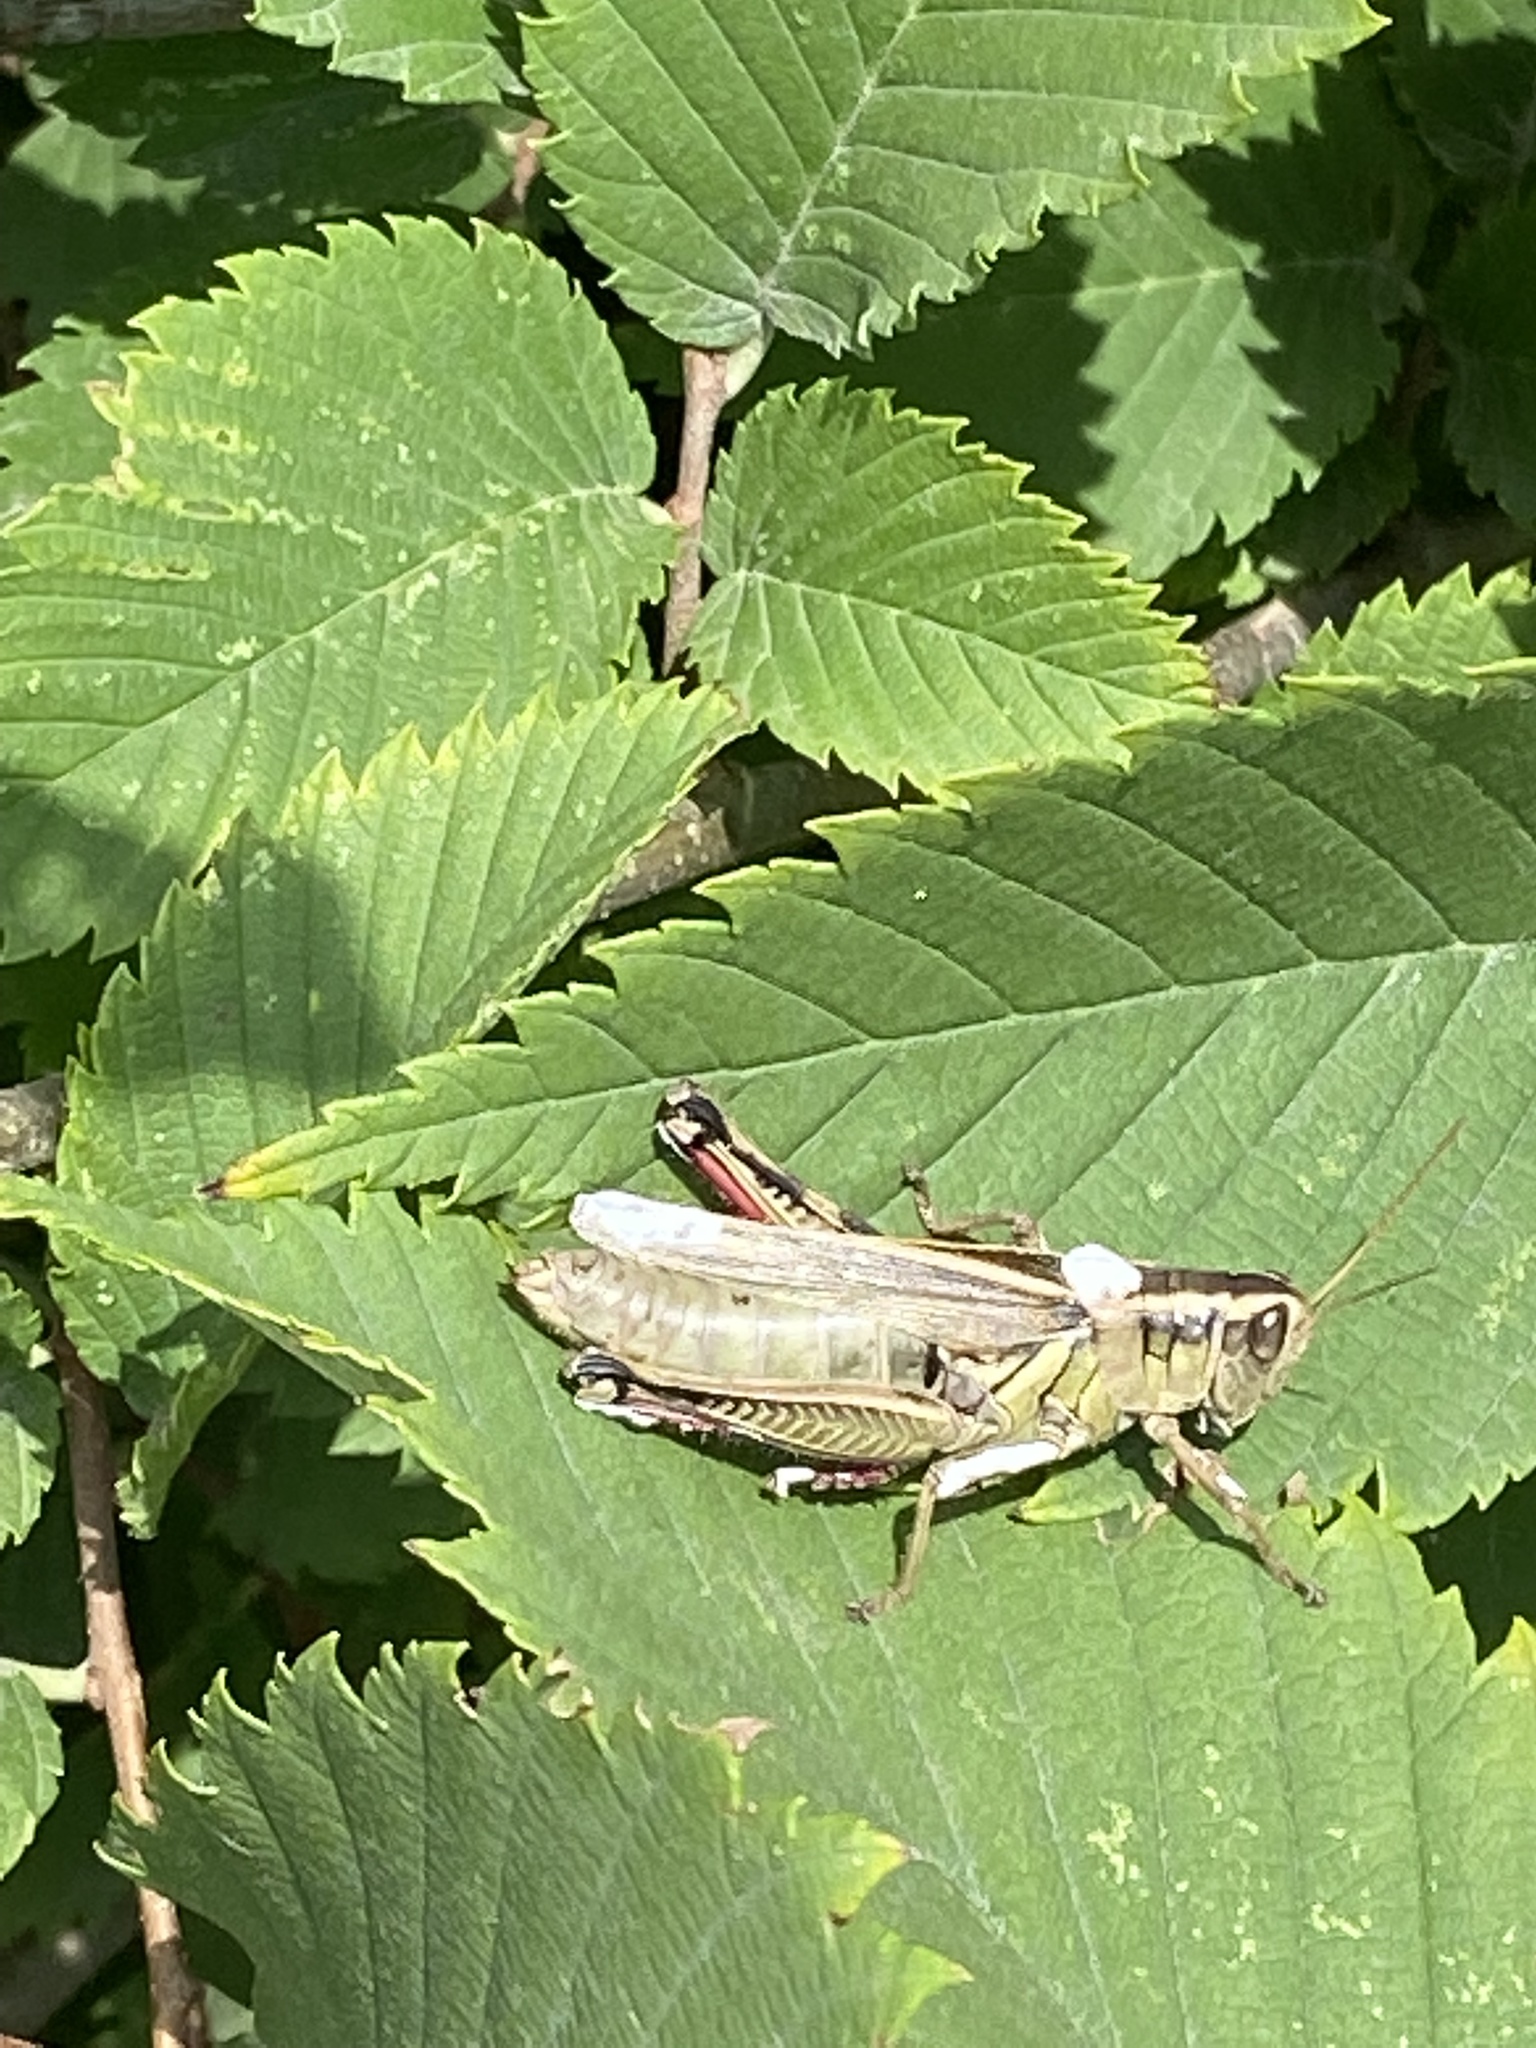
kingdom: Animalia
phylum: Arthropoda
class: Insecta
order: Orthoptera
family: Acrididae
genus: Melanoplus
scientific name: Melanoplus bivittatus
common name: Two-striped grasshopper
